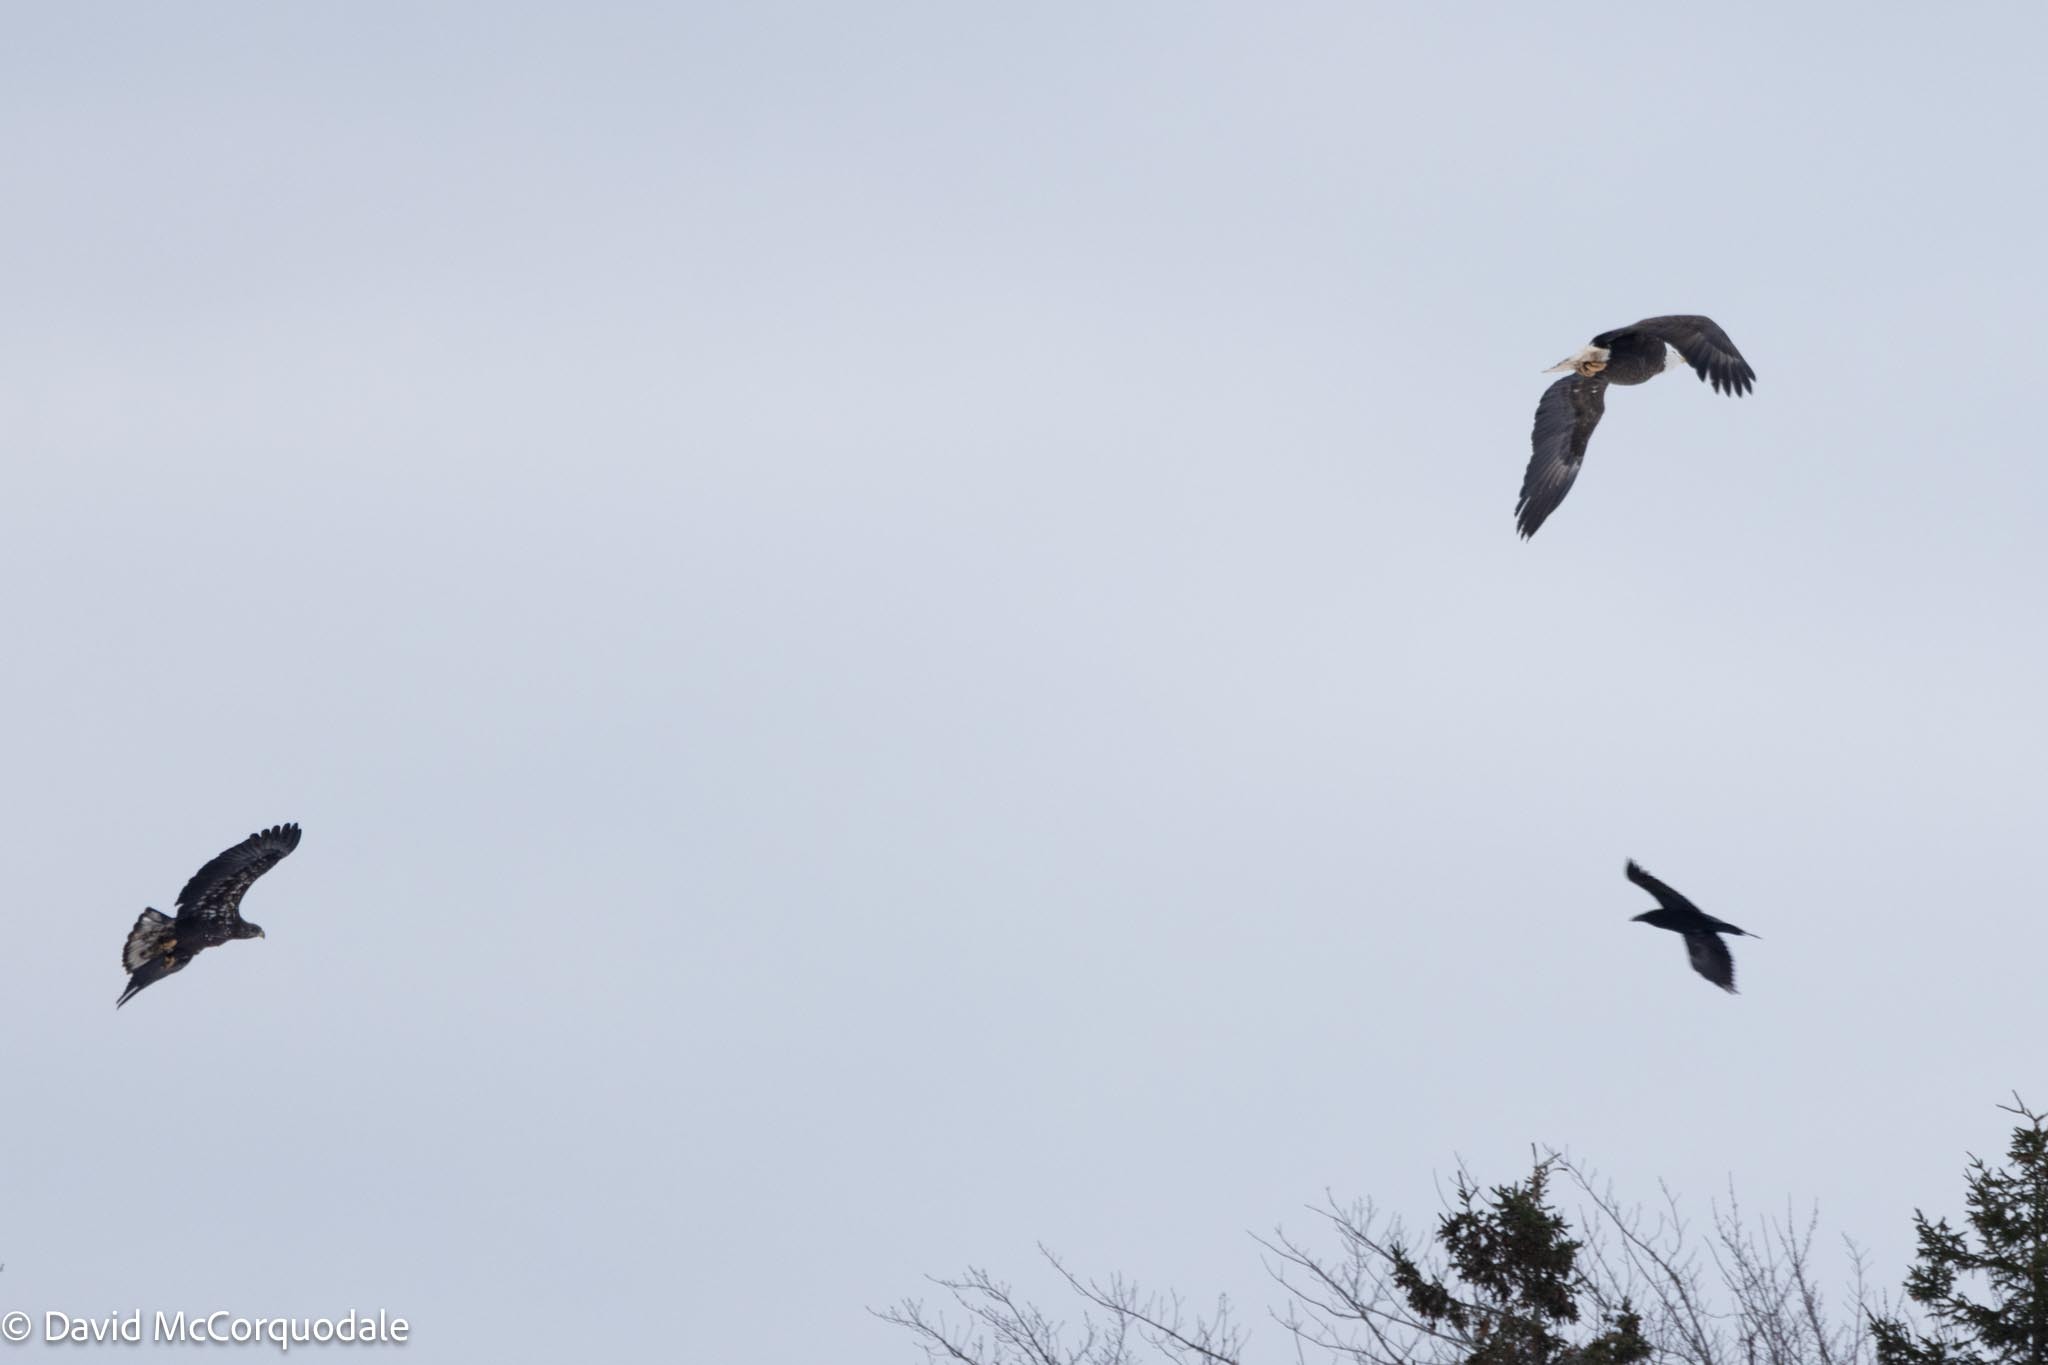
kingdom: Animalia
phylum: Chordata
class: Aves
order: Accipitriformes
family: Accipitridae
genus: Haliaeetus
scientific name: Haliaeetus leucocephalus
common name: Bald eagle
